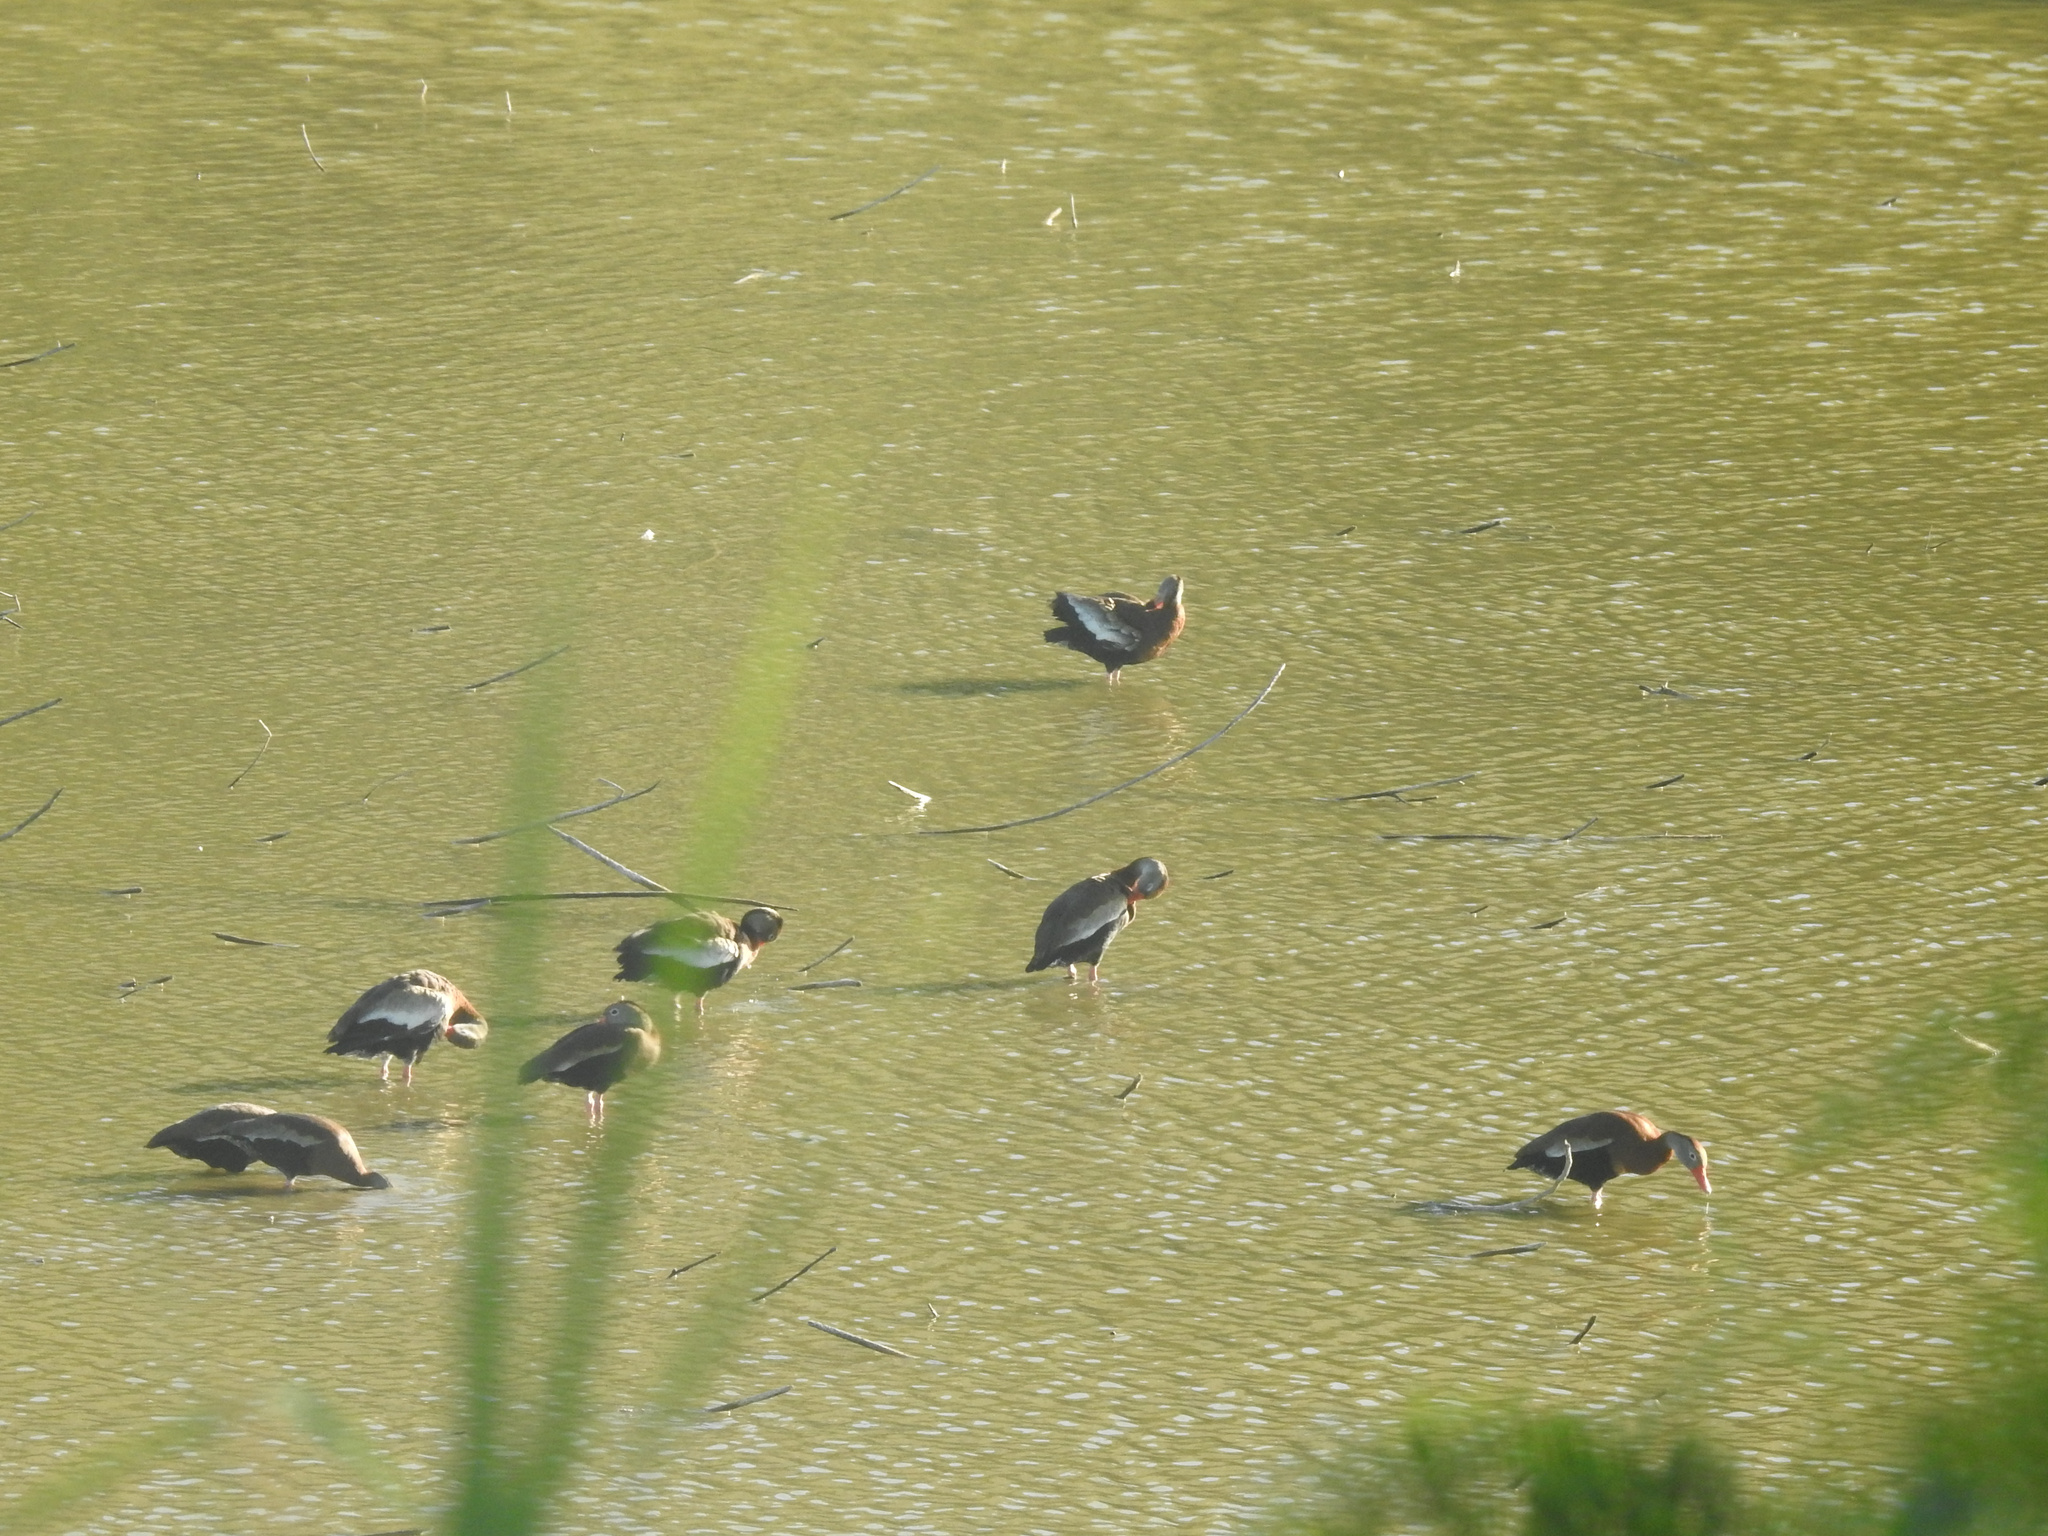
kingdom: Animalia
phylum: Chordata
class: Aves
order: Anseriformes
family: Anatidae
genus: Dendrocygna
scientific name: Dendrocygna autumnalis
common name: Black-bellied whistling duck
